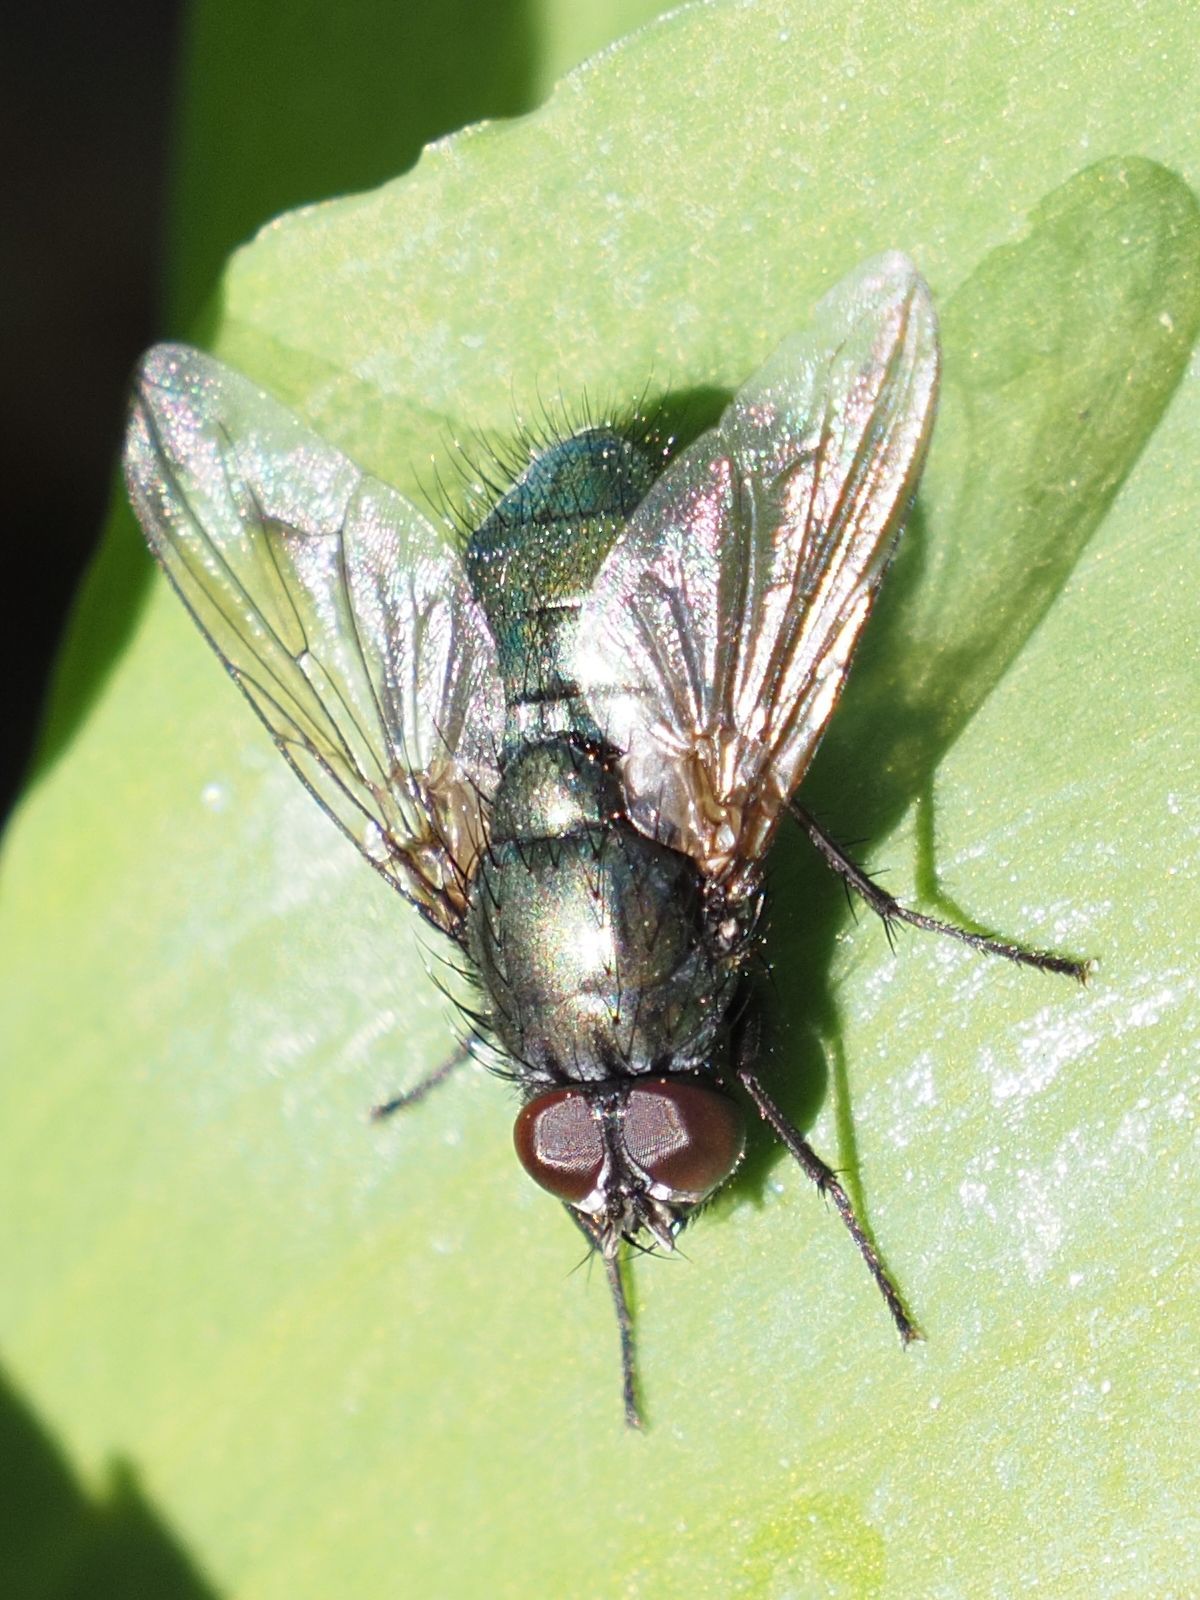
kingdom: Animalia
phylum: Arthropoda
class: Insecta
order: Diptera
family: Muscidae
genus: Dasyphora
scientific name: Dasyphora cyanella
